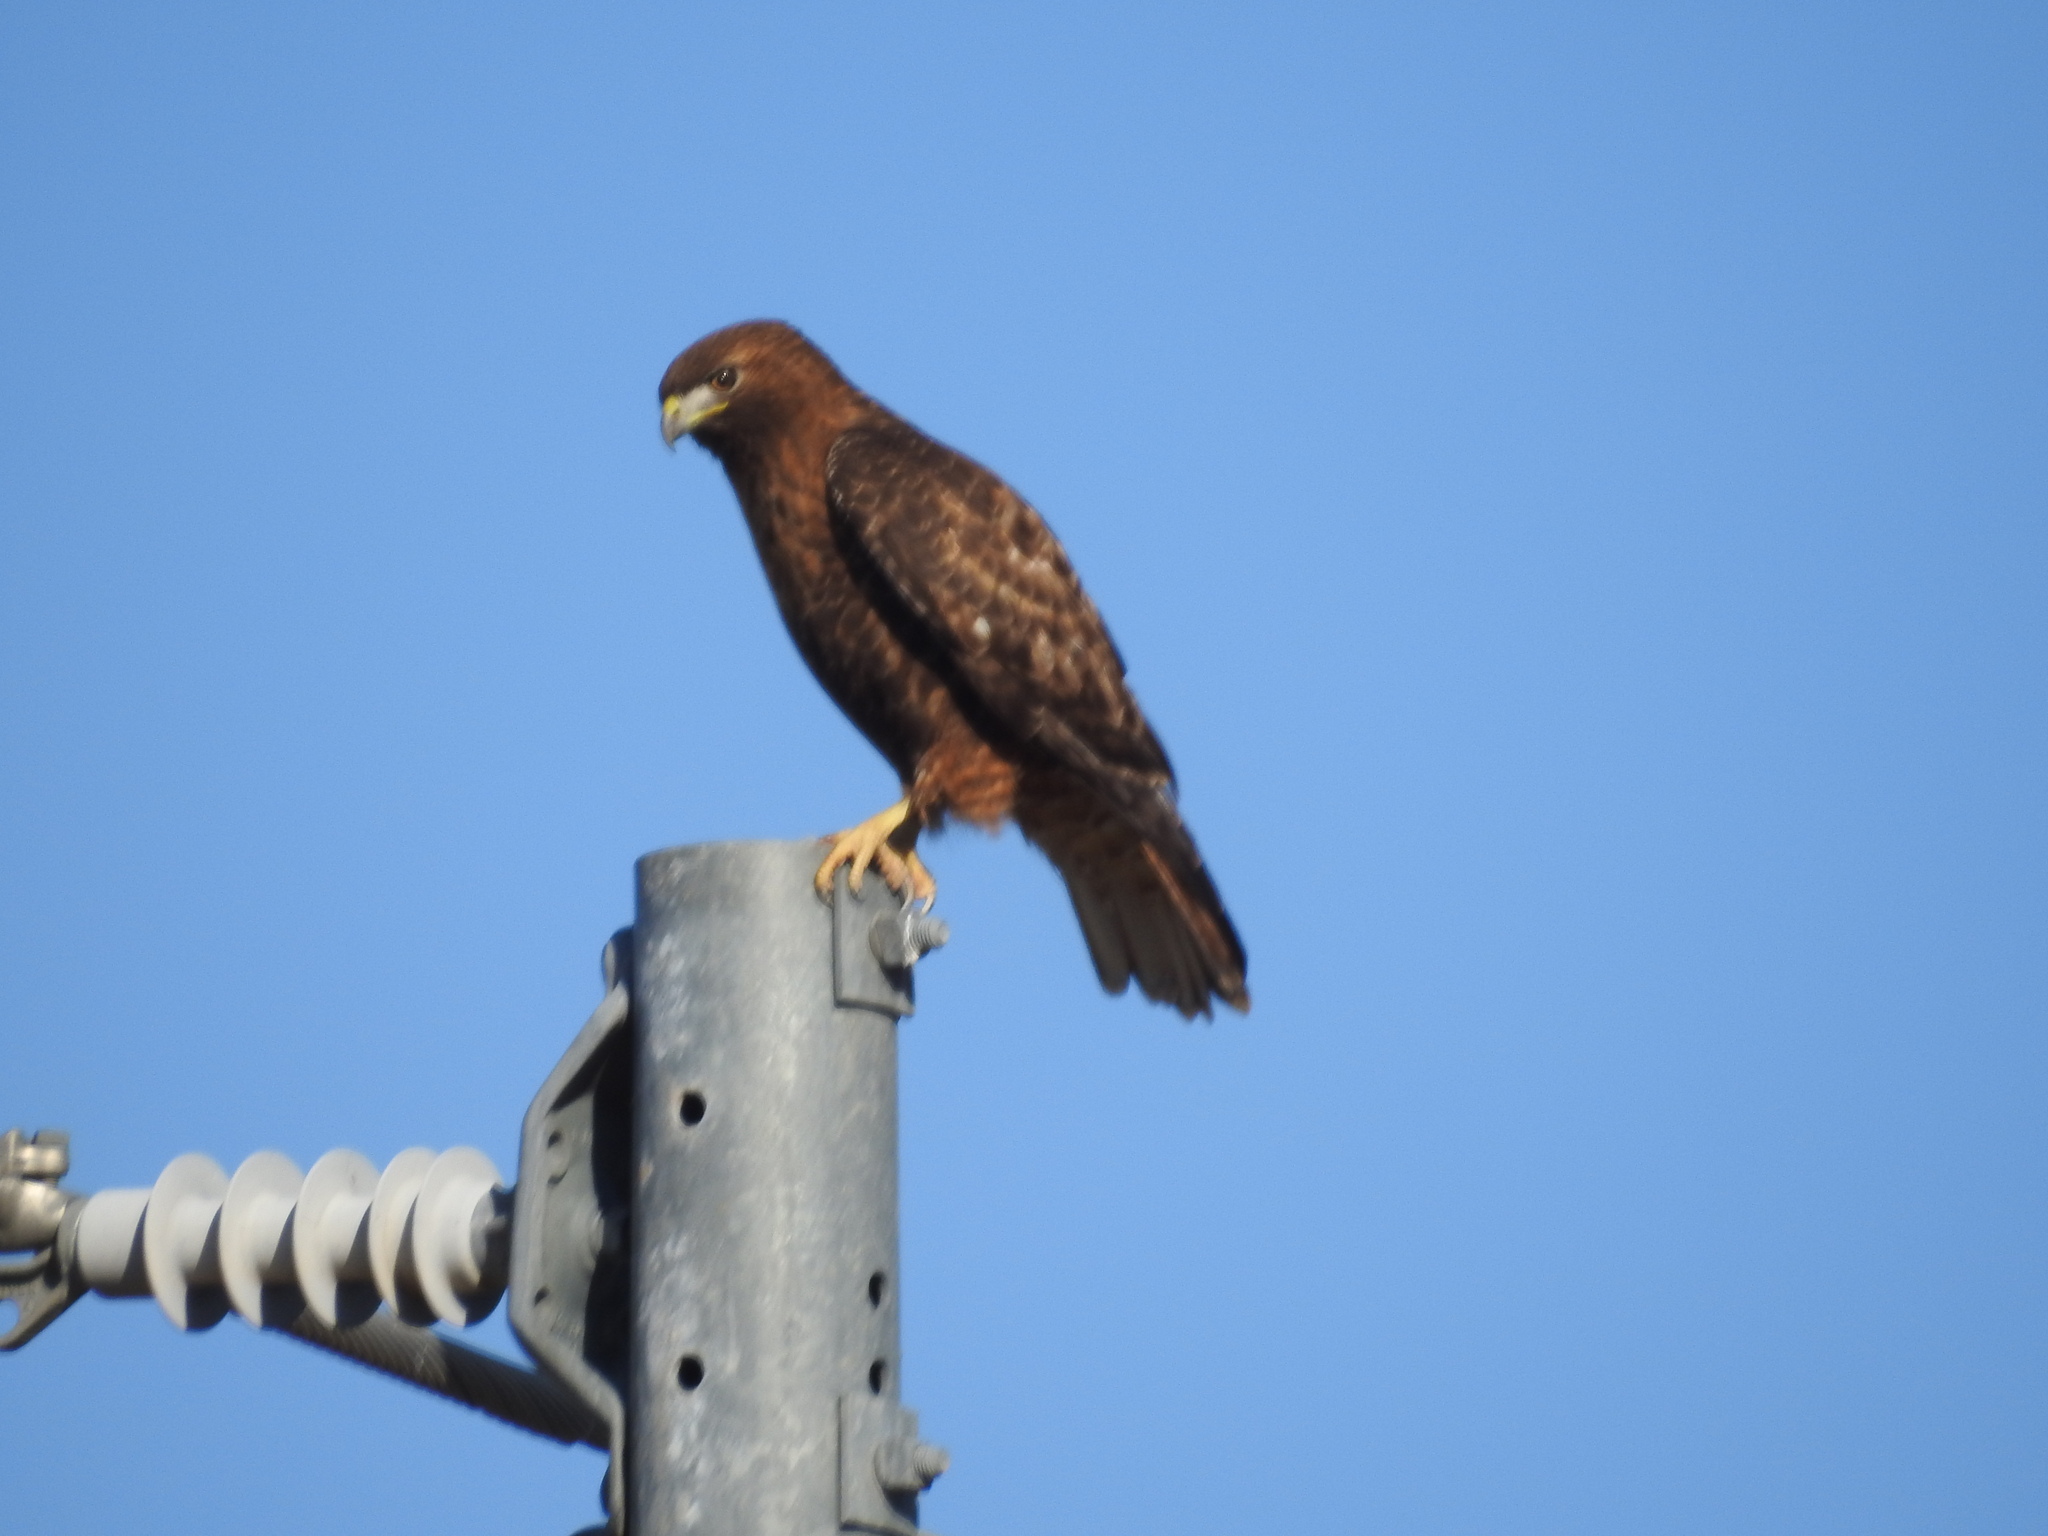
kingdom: Animalia
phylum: Chordata
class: Aves
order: Accipitriformes
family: Accipitridae
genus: Buteo
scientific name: Buteo jamaicensis
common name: Red-tailed hawk
